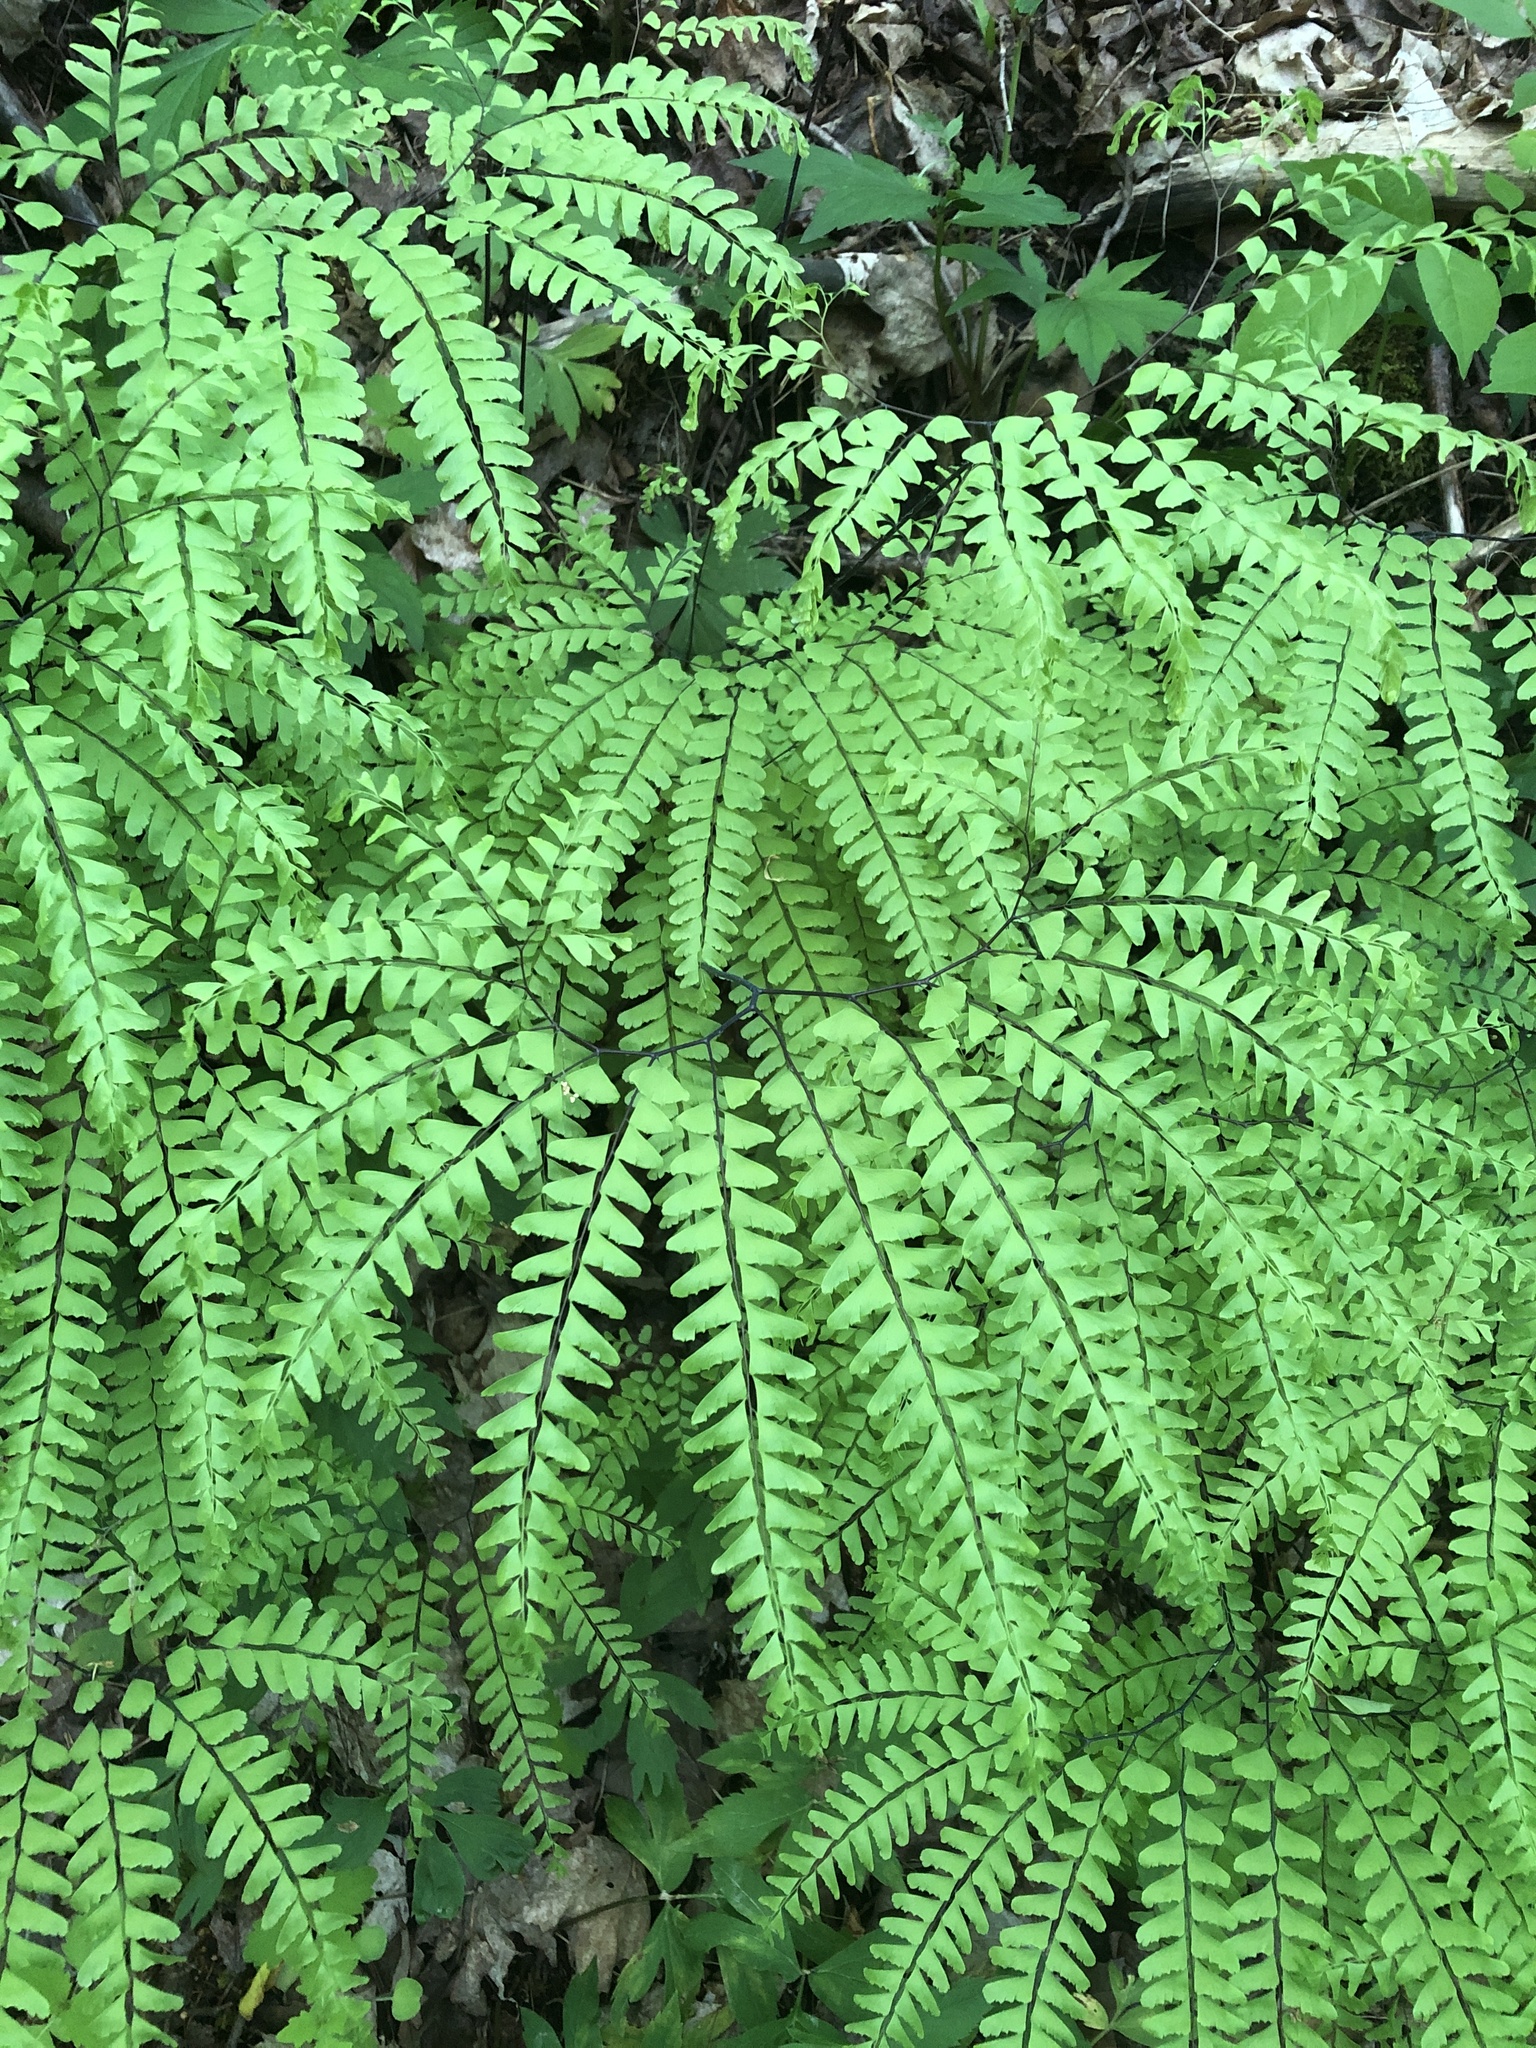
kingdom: Plantae
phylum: Tracheophyta
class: Polypodiopsida
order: Polypodiales
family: Pteridaceae
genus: Adiantum
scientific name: Adiantum pedatum
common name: Five-finger fern
